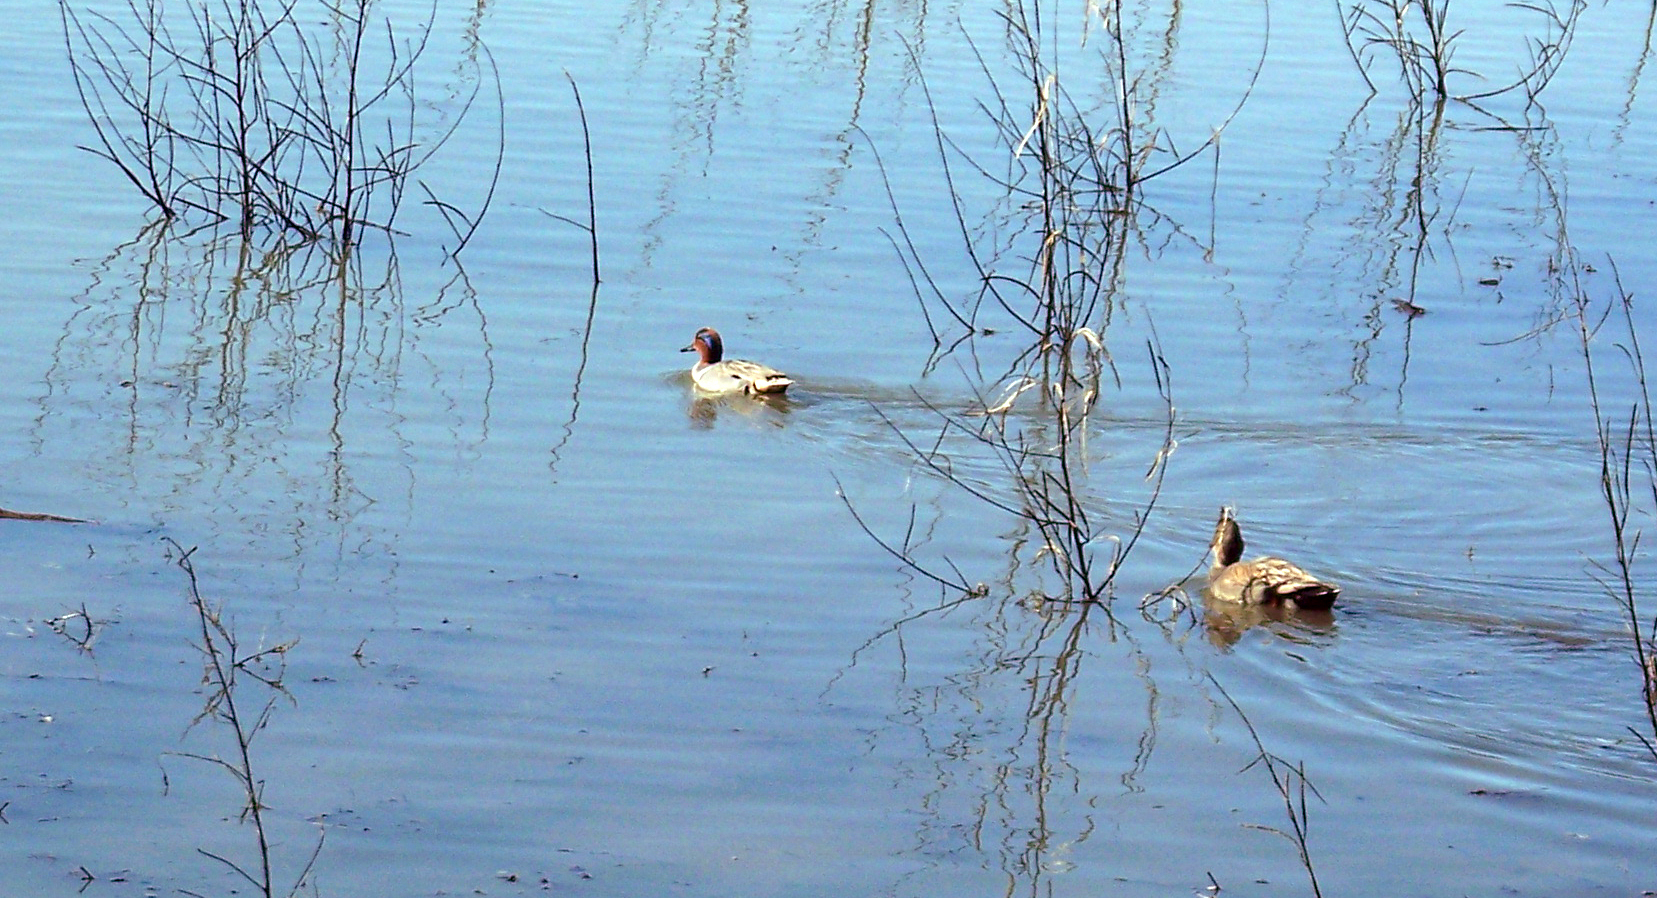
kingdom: Animalia
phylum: Chordata
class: Aves
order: Anseriformes
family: Anatidae
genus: Anas
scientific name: Anas crecca
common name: Eurasian teal
